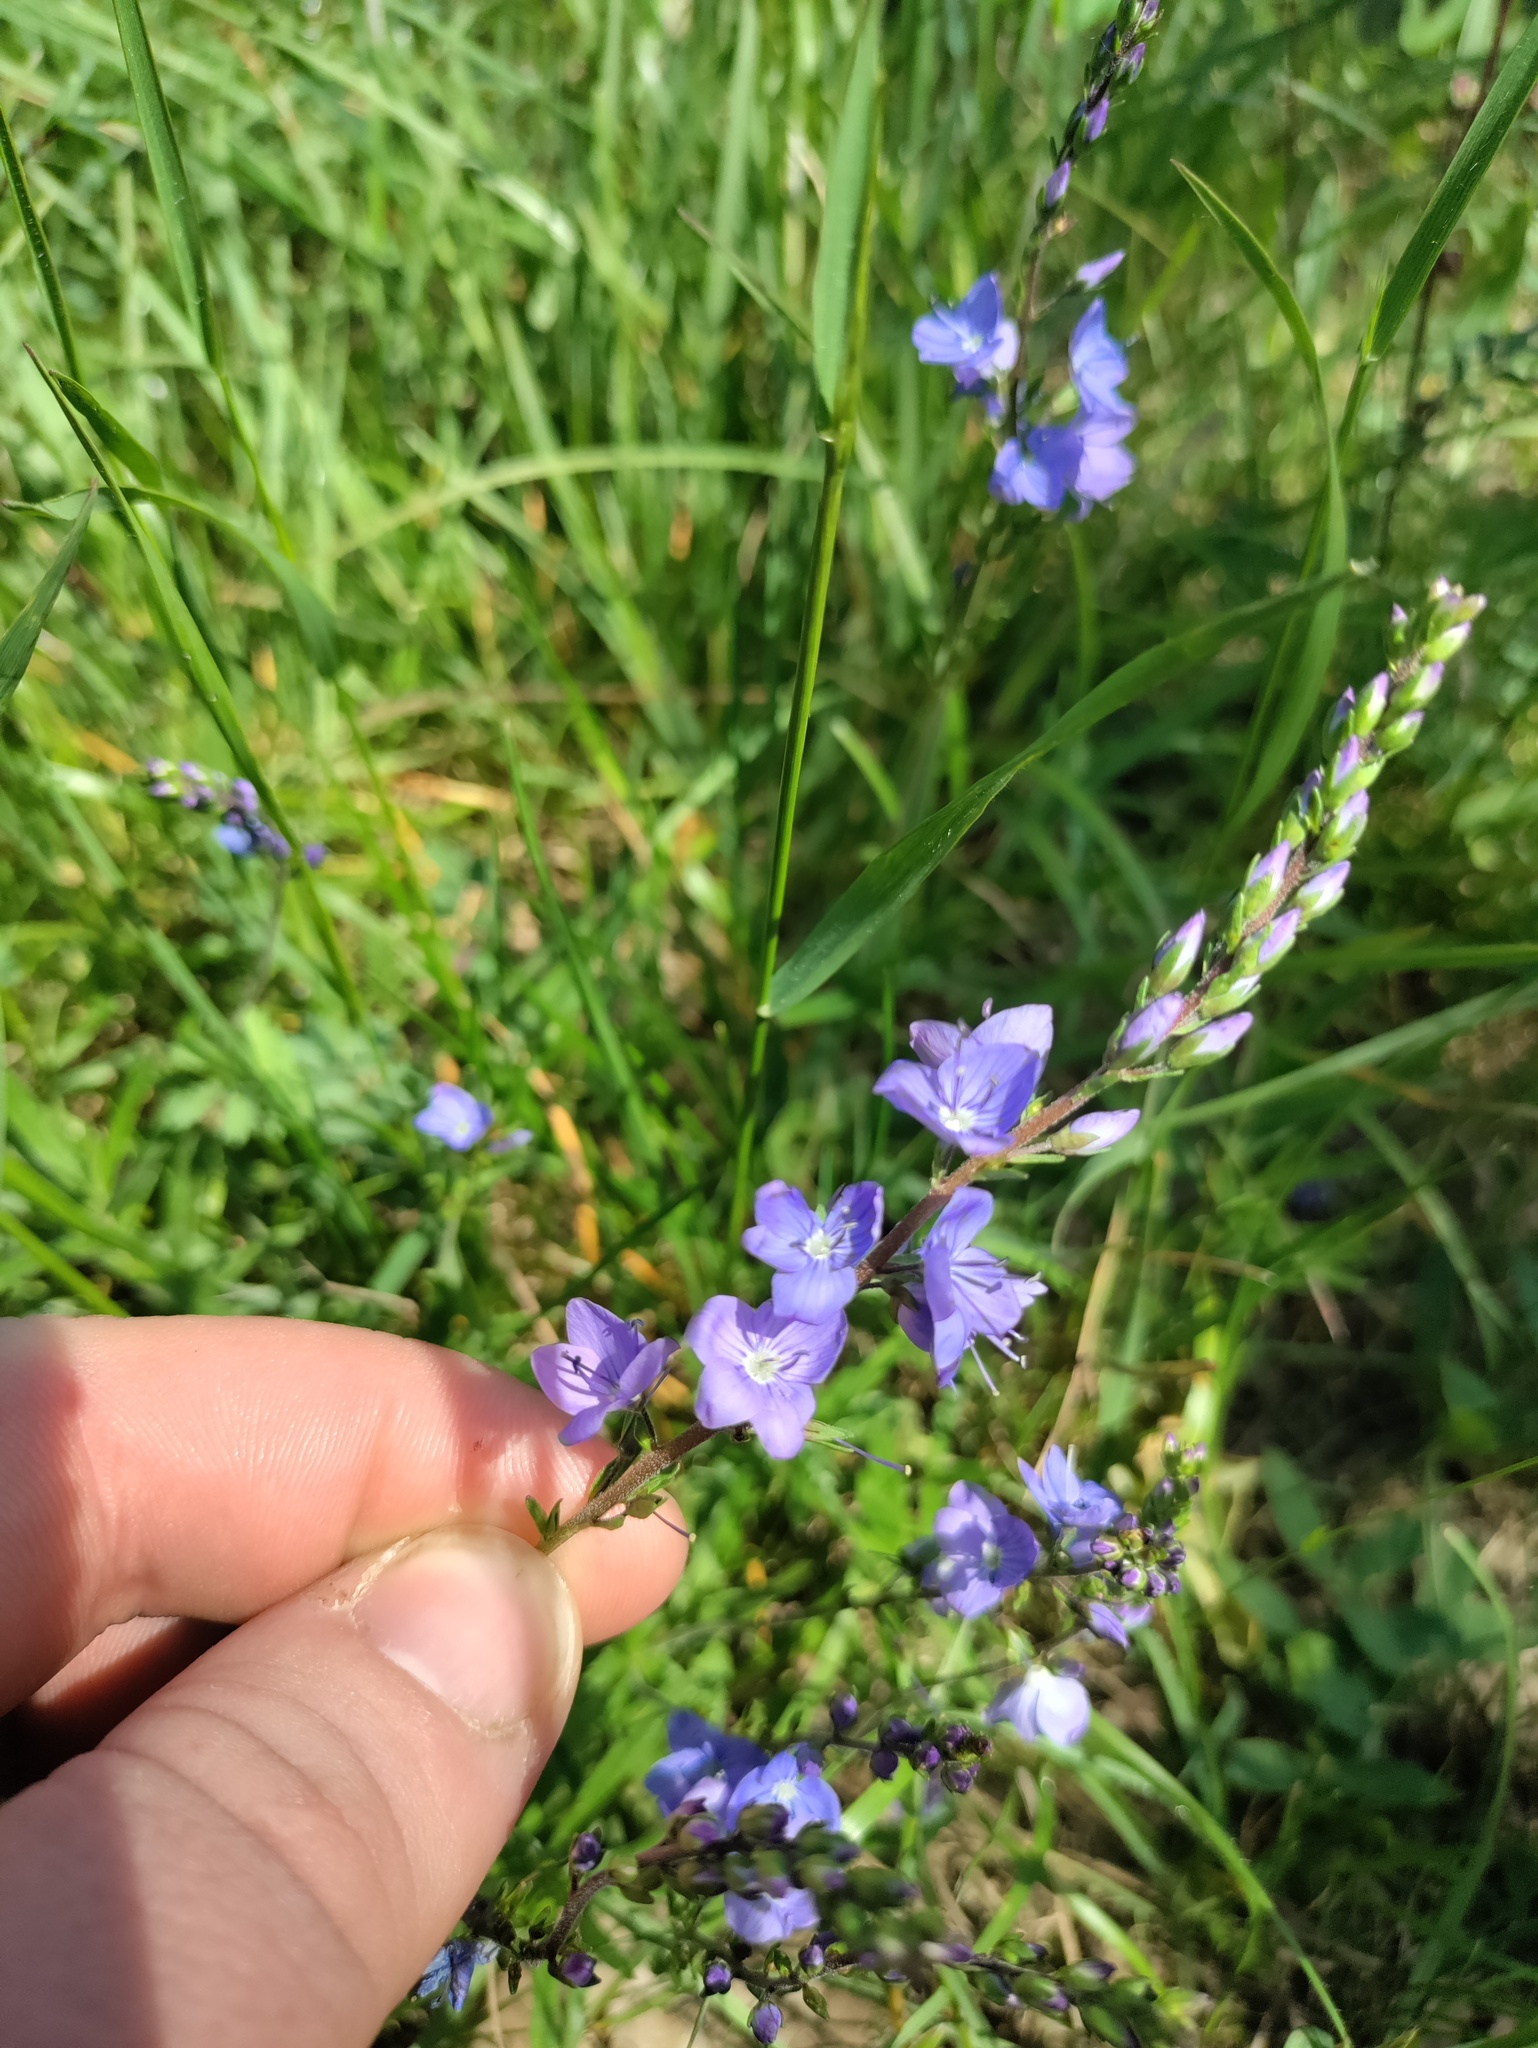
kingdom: Plantae
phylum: Tracheophyta
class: Magnoliopsida
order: Lamiales
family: Plantaginaceae
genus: Veronica
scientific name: Veronica austriaca
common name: Large speedwell
